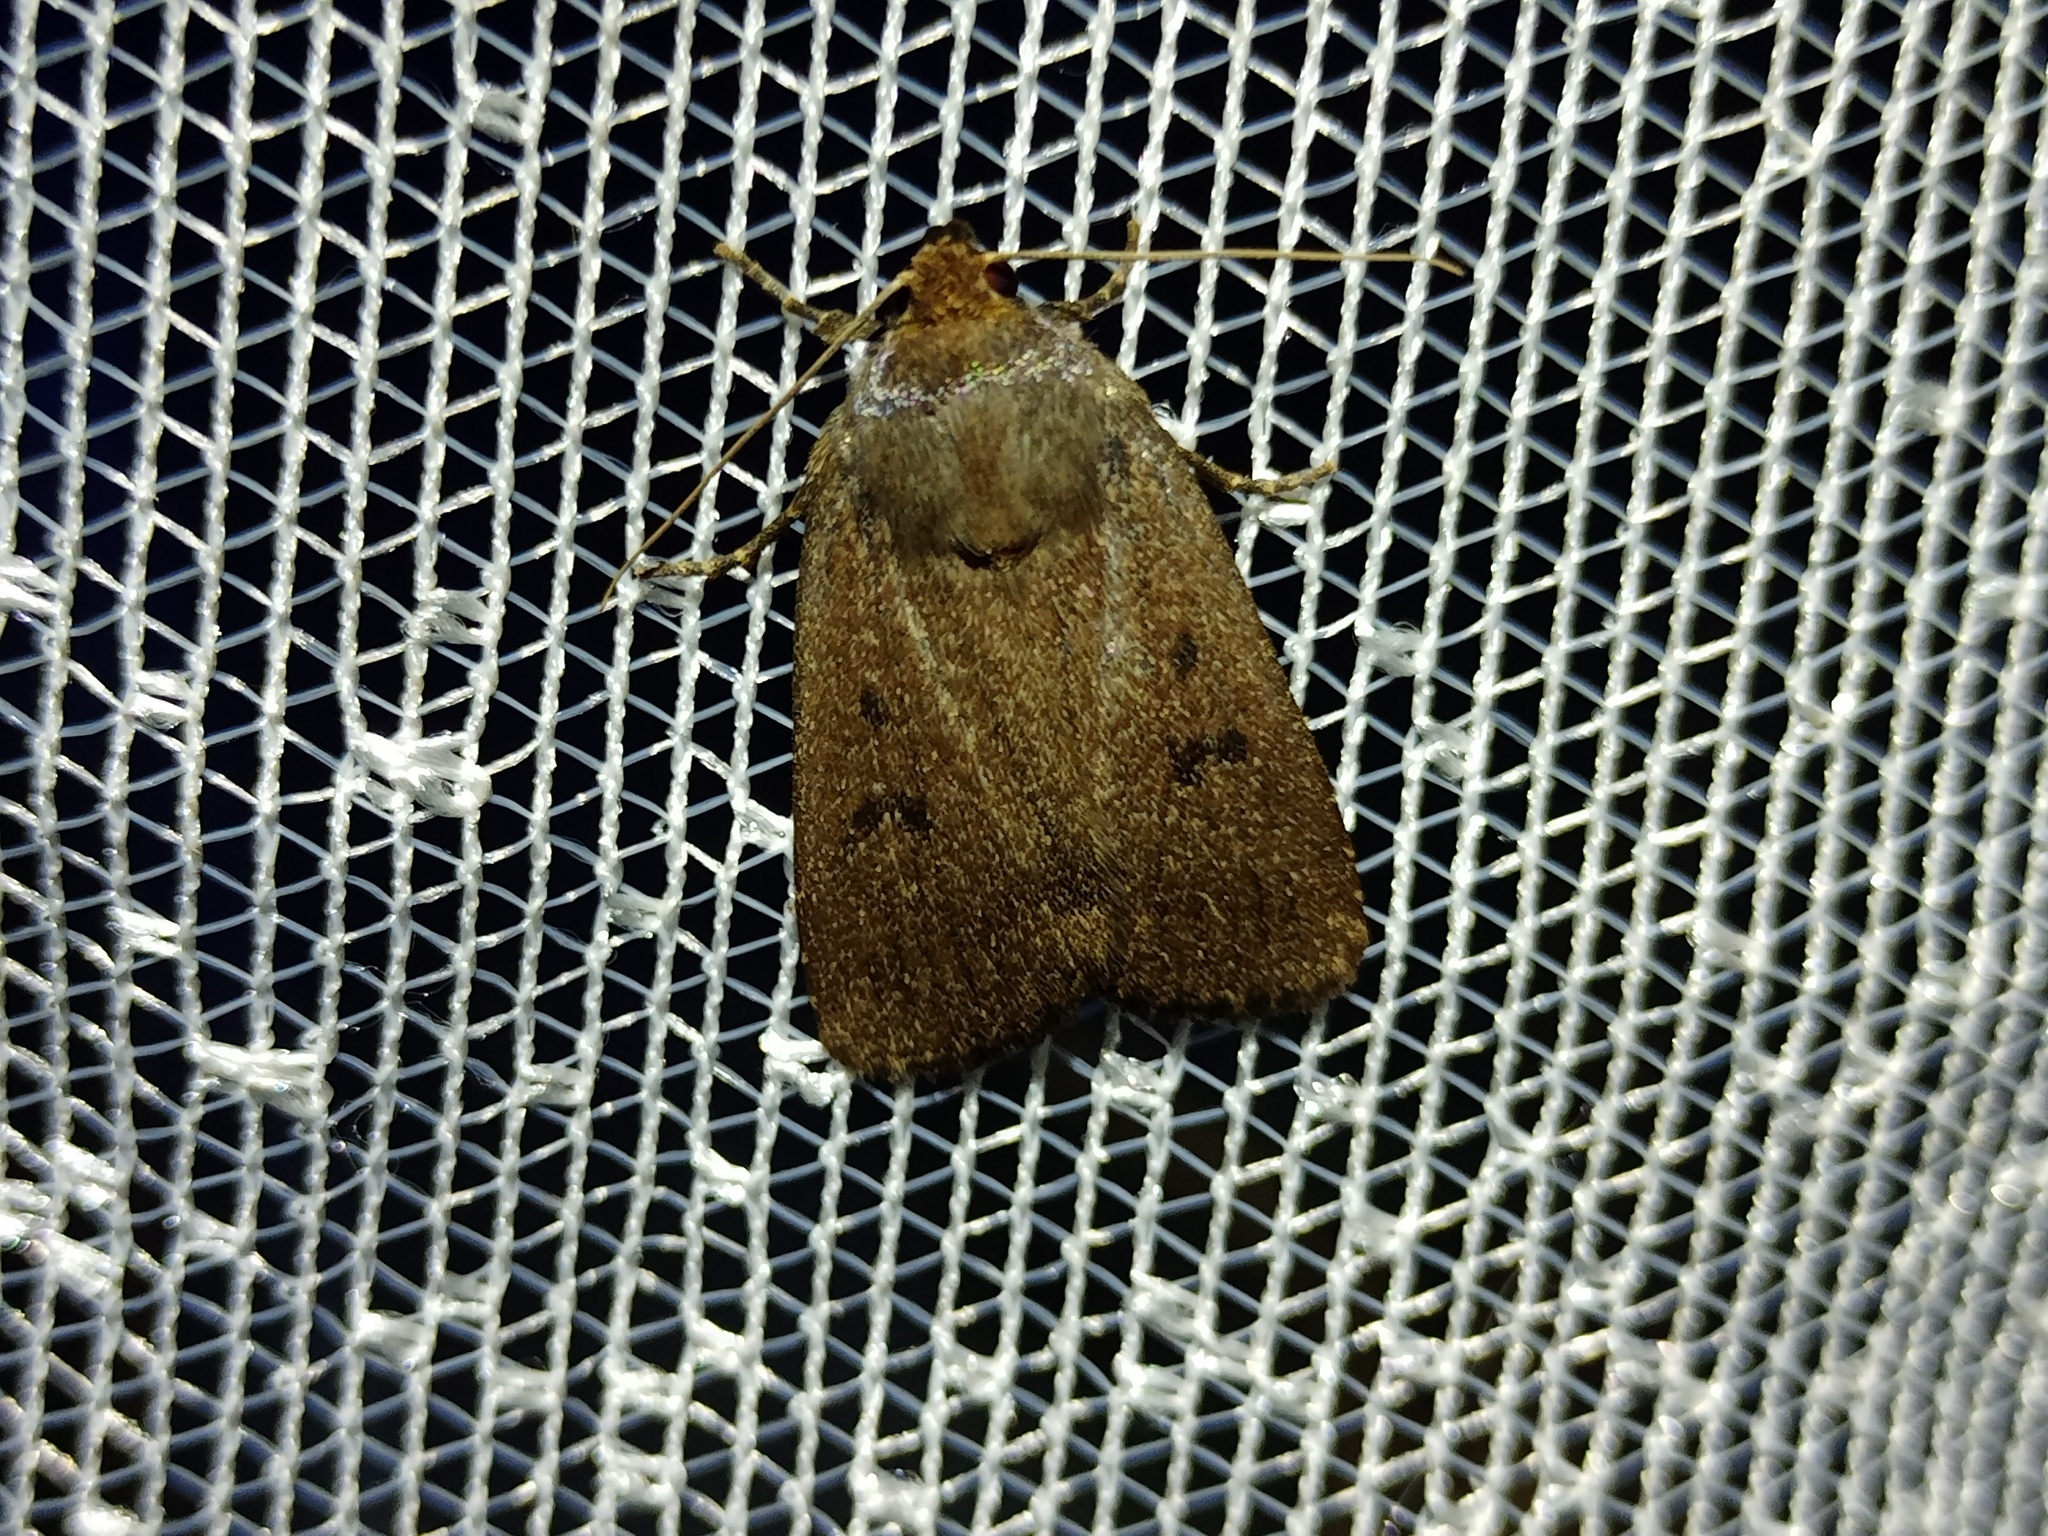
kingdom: Animalia
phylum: Arthropoda
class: Insecta
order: Lepidoptera
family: Noctuidae
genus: Amphipyra
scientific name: Amphipyra tragopoginis
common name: Mouse moth
